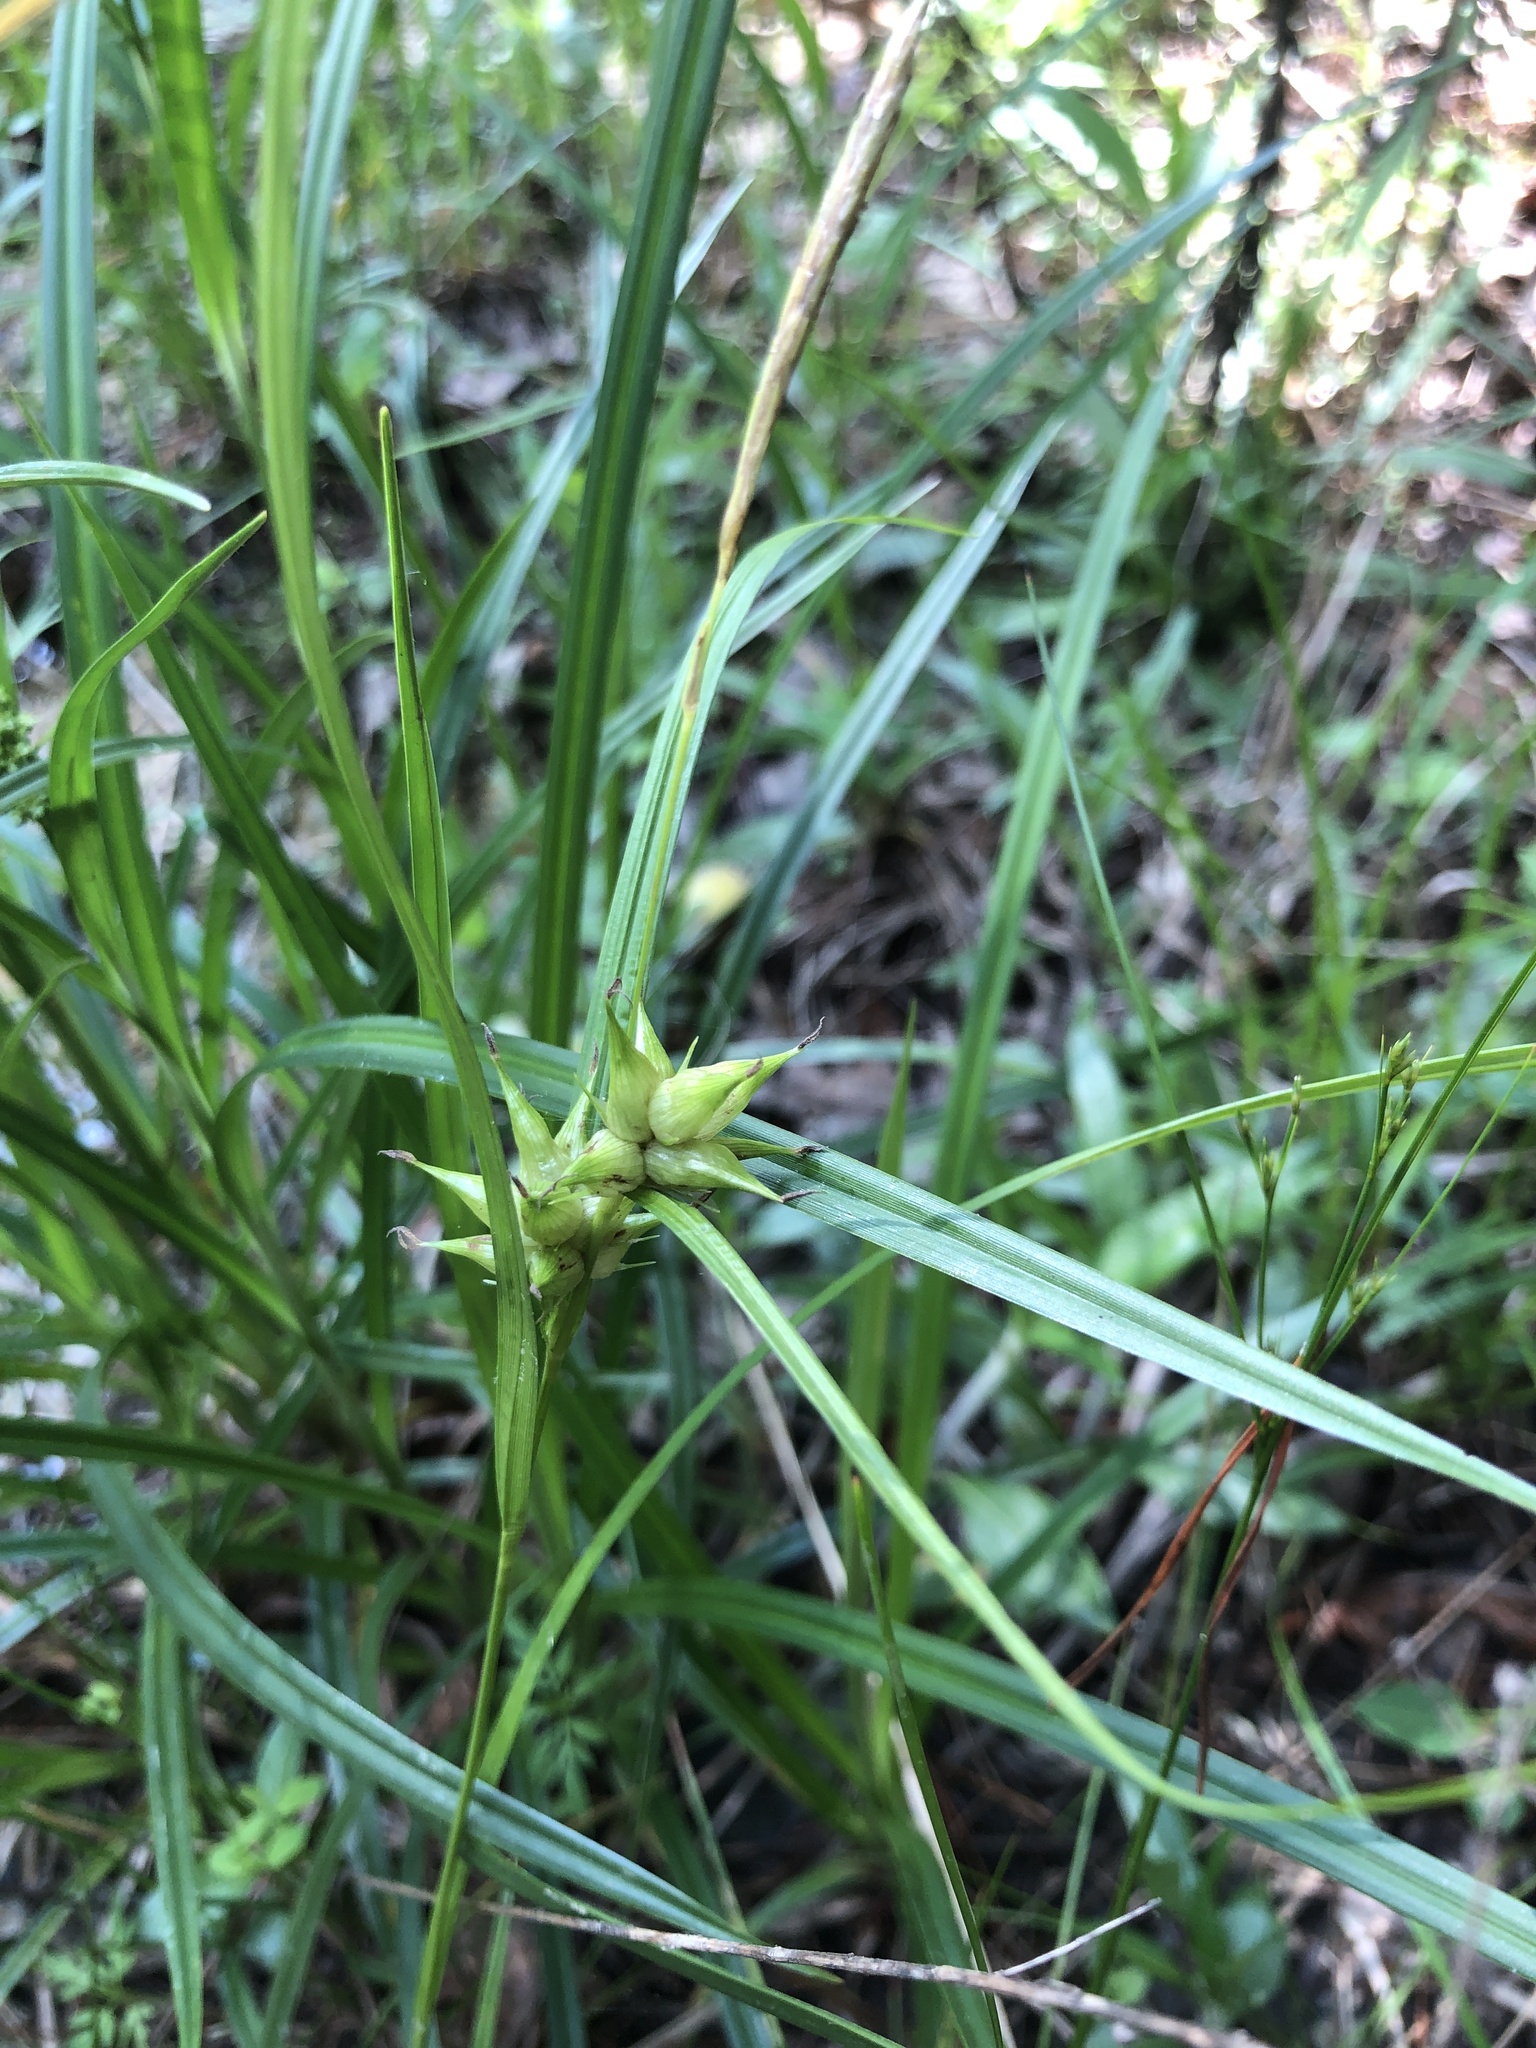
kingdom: Plantae
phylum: Tracheophyta
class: Liliopsida
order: Poales
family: Cyperaceae
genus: Carex
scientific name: Carex intumescens
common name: Greater bladder sedge
